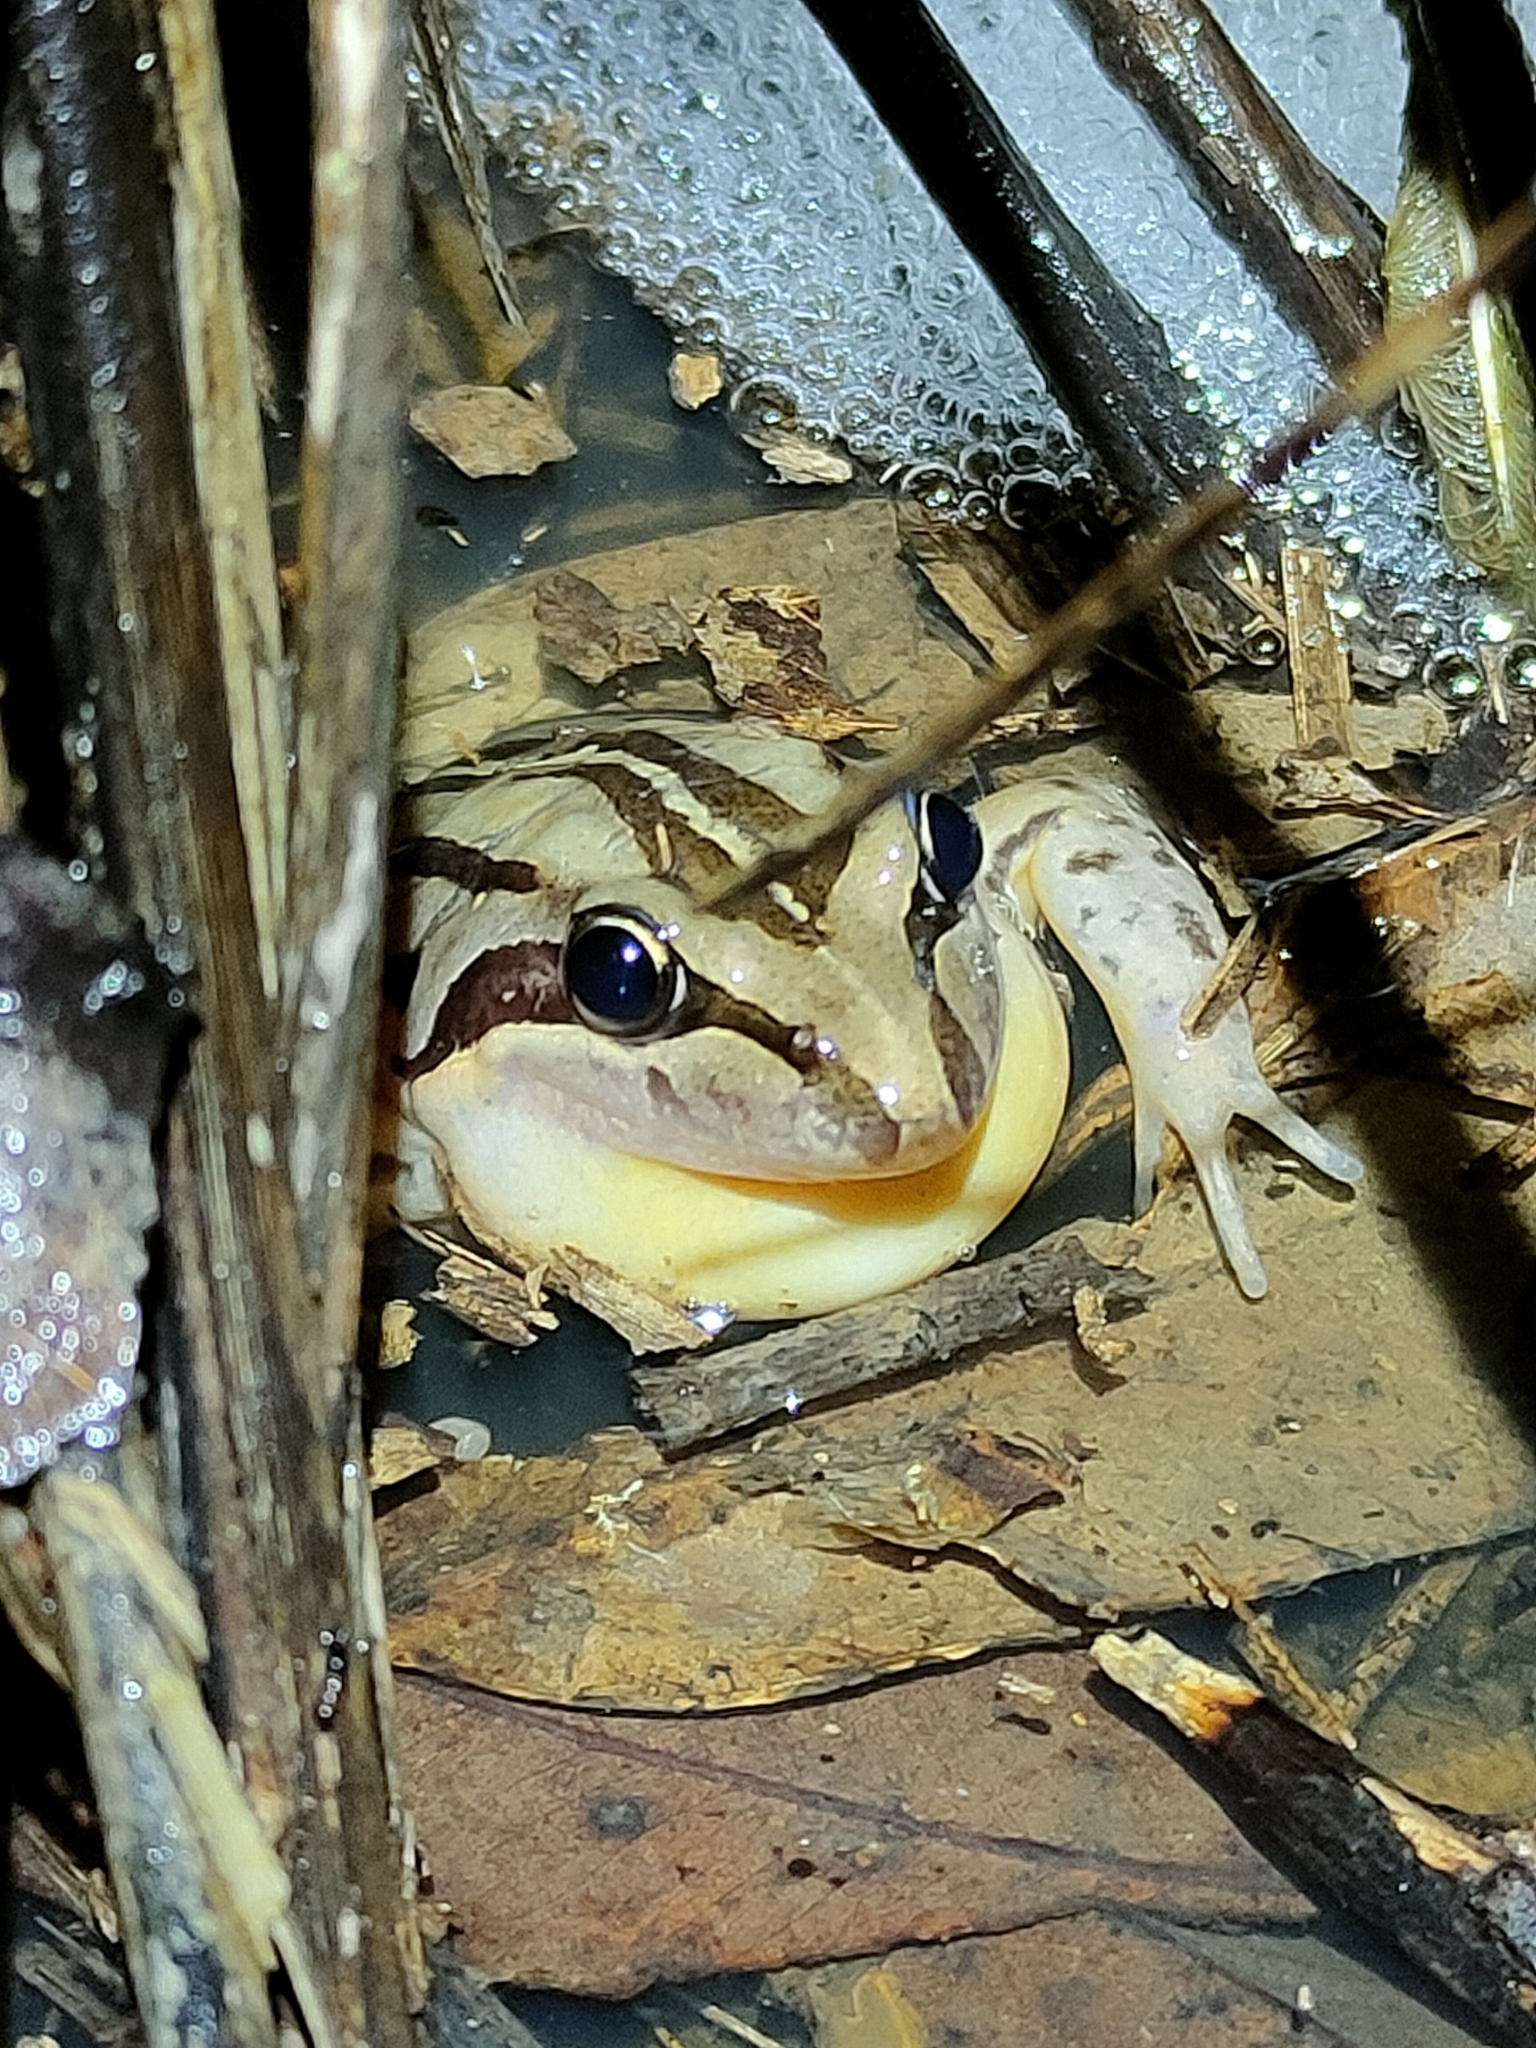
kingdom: Animalia
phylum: Chordata
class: Amphibia
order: Anura
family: Limnodynastidae
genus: Limnodynastes
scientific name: Limnodynastes peronii
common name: Brown frog
